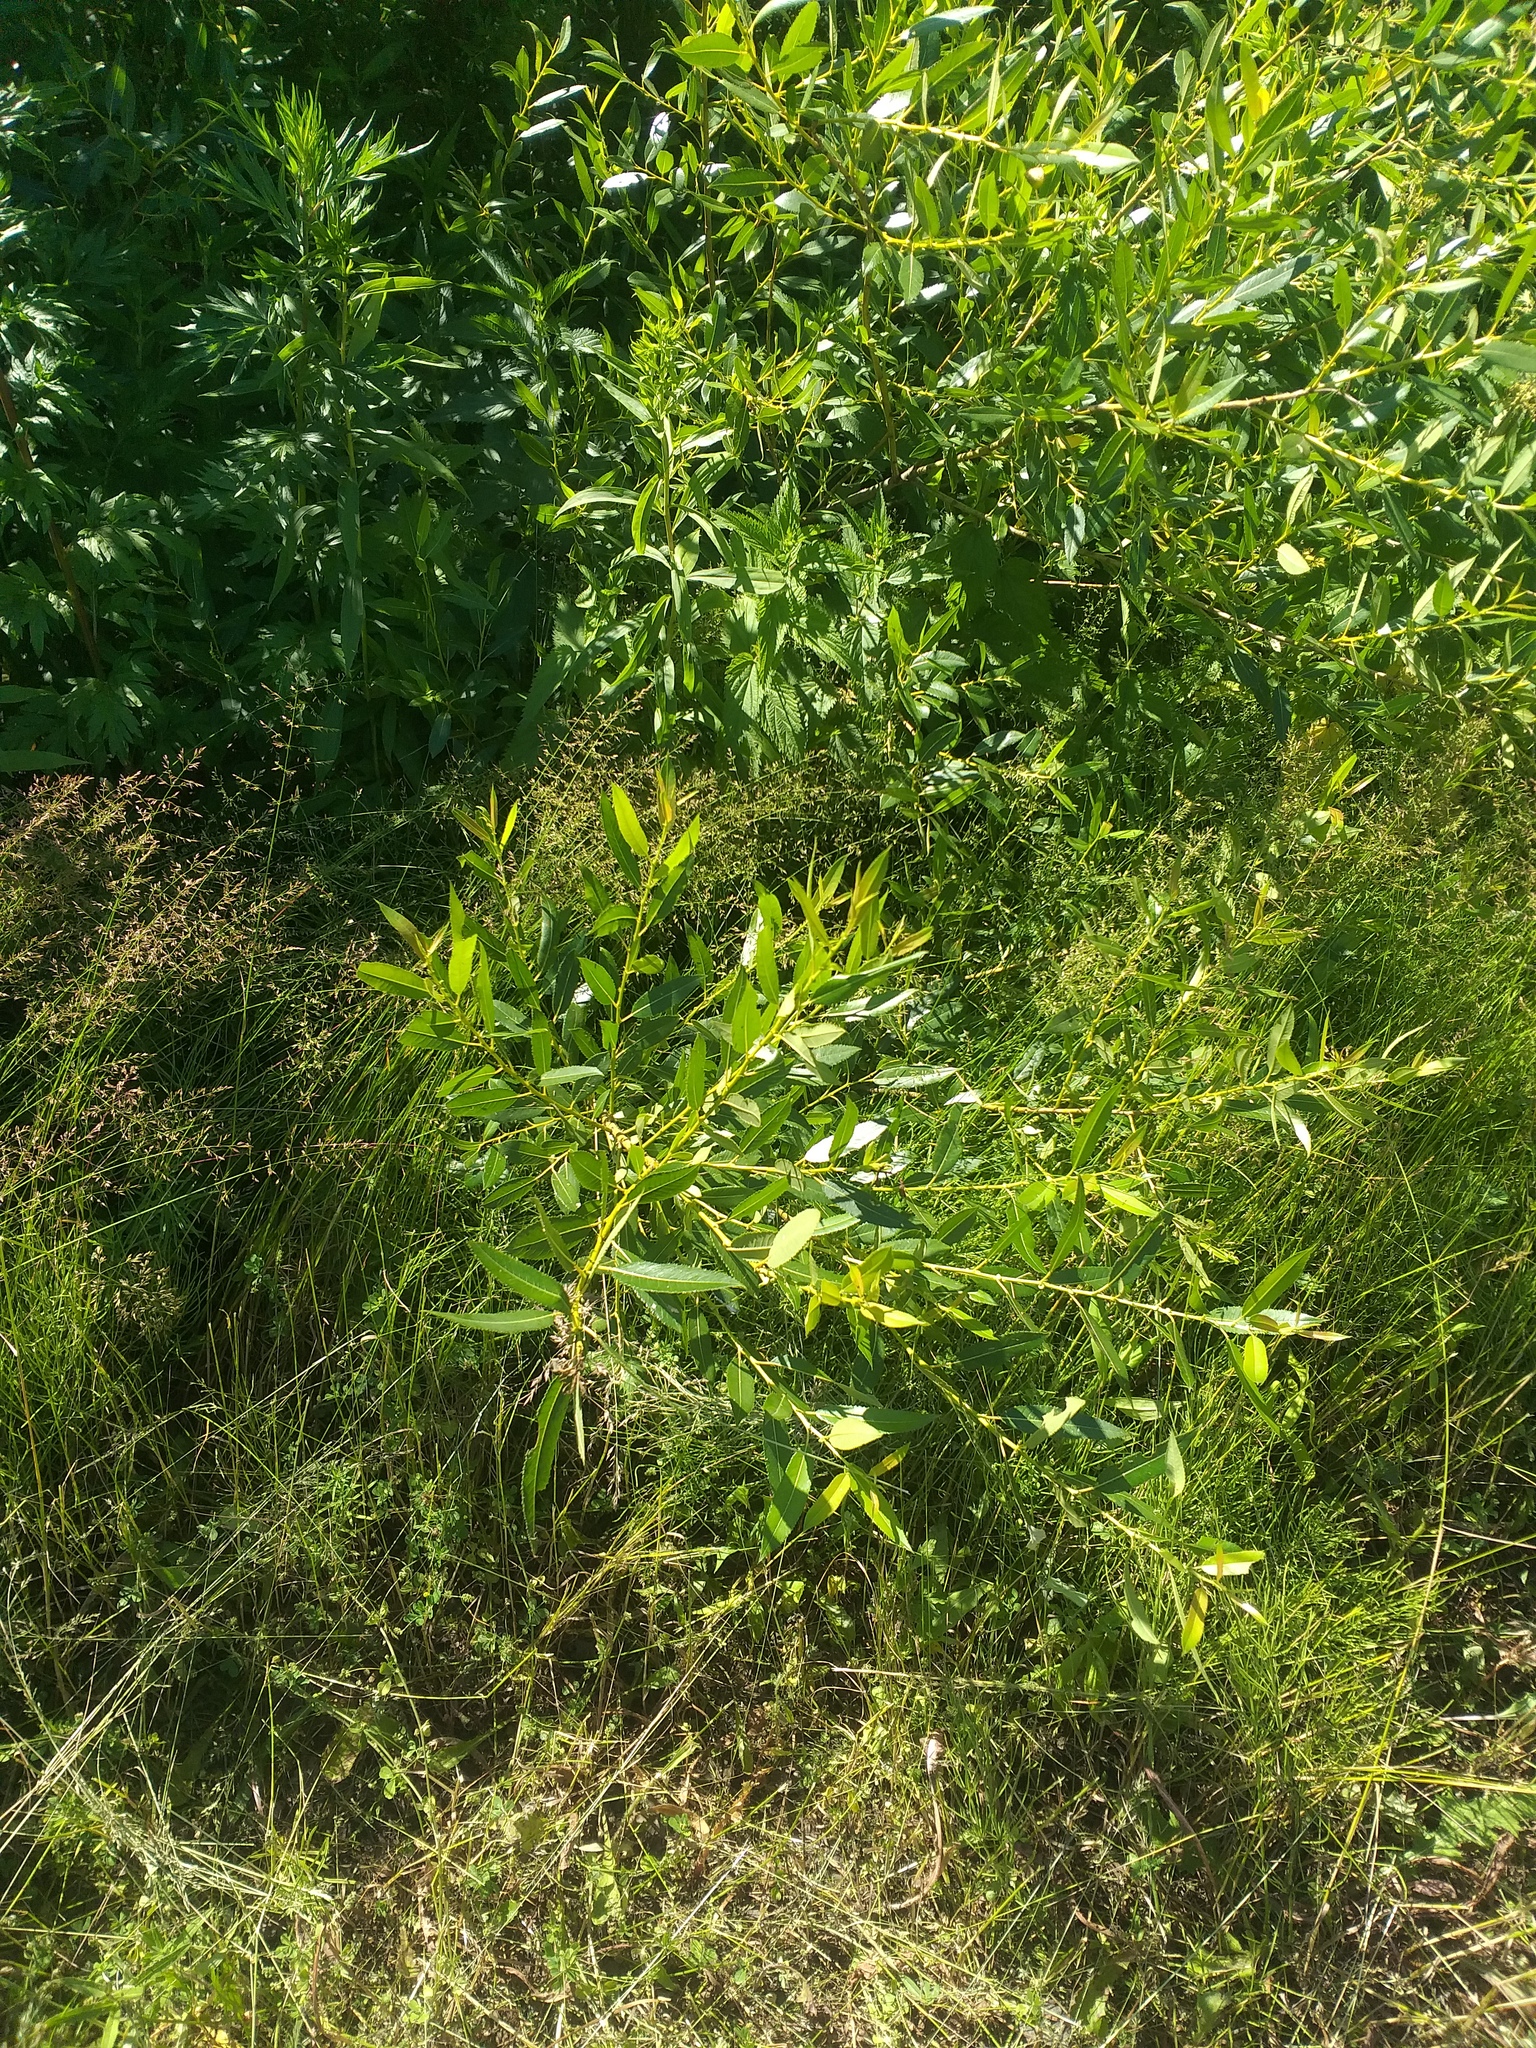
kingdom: Plantae
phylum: Tracheophyta
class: Magnoliopsida
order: Malpighiales
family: Salicaceae
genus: Salix
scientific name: Salix triandra
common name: Almond willow
